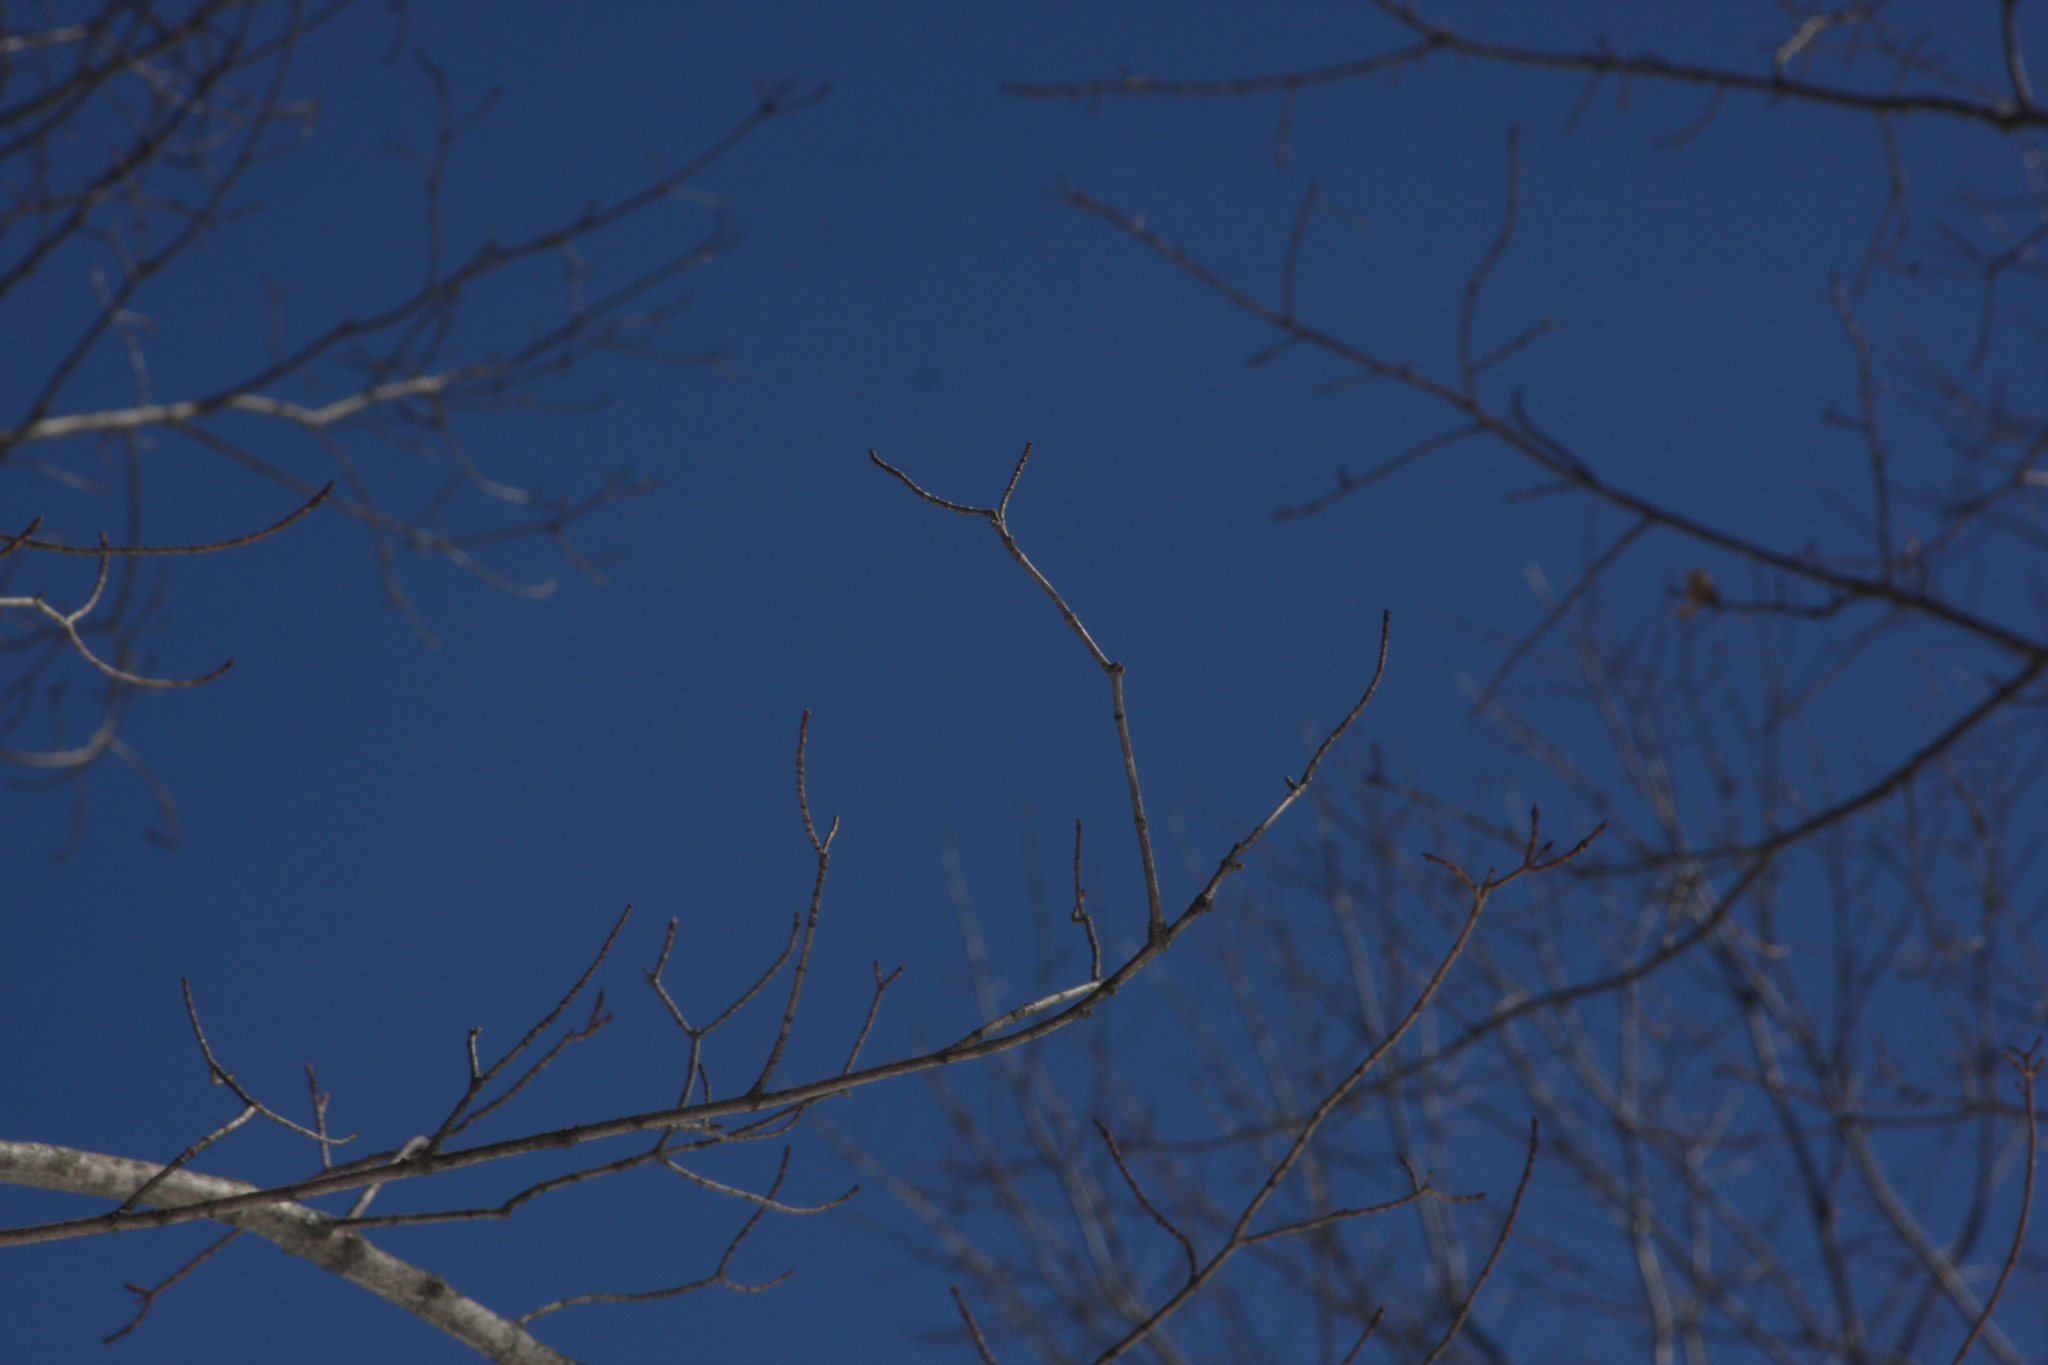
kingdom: Plantae
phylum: Tracheophyta
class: Magnoliopsida
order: Sapindales
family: Sapindaceae
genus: Acer
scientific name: Acer saccharum
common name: Sugar maple
